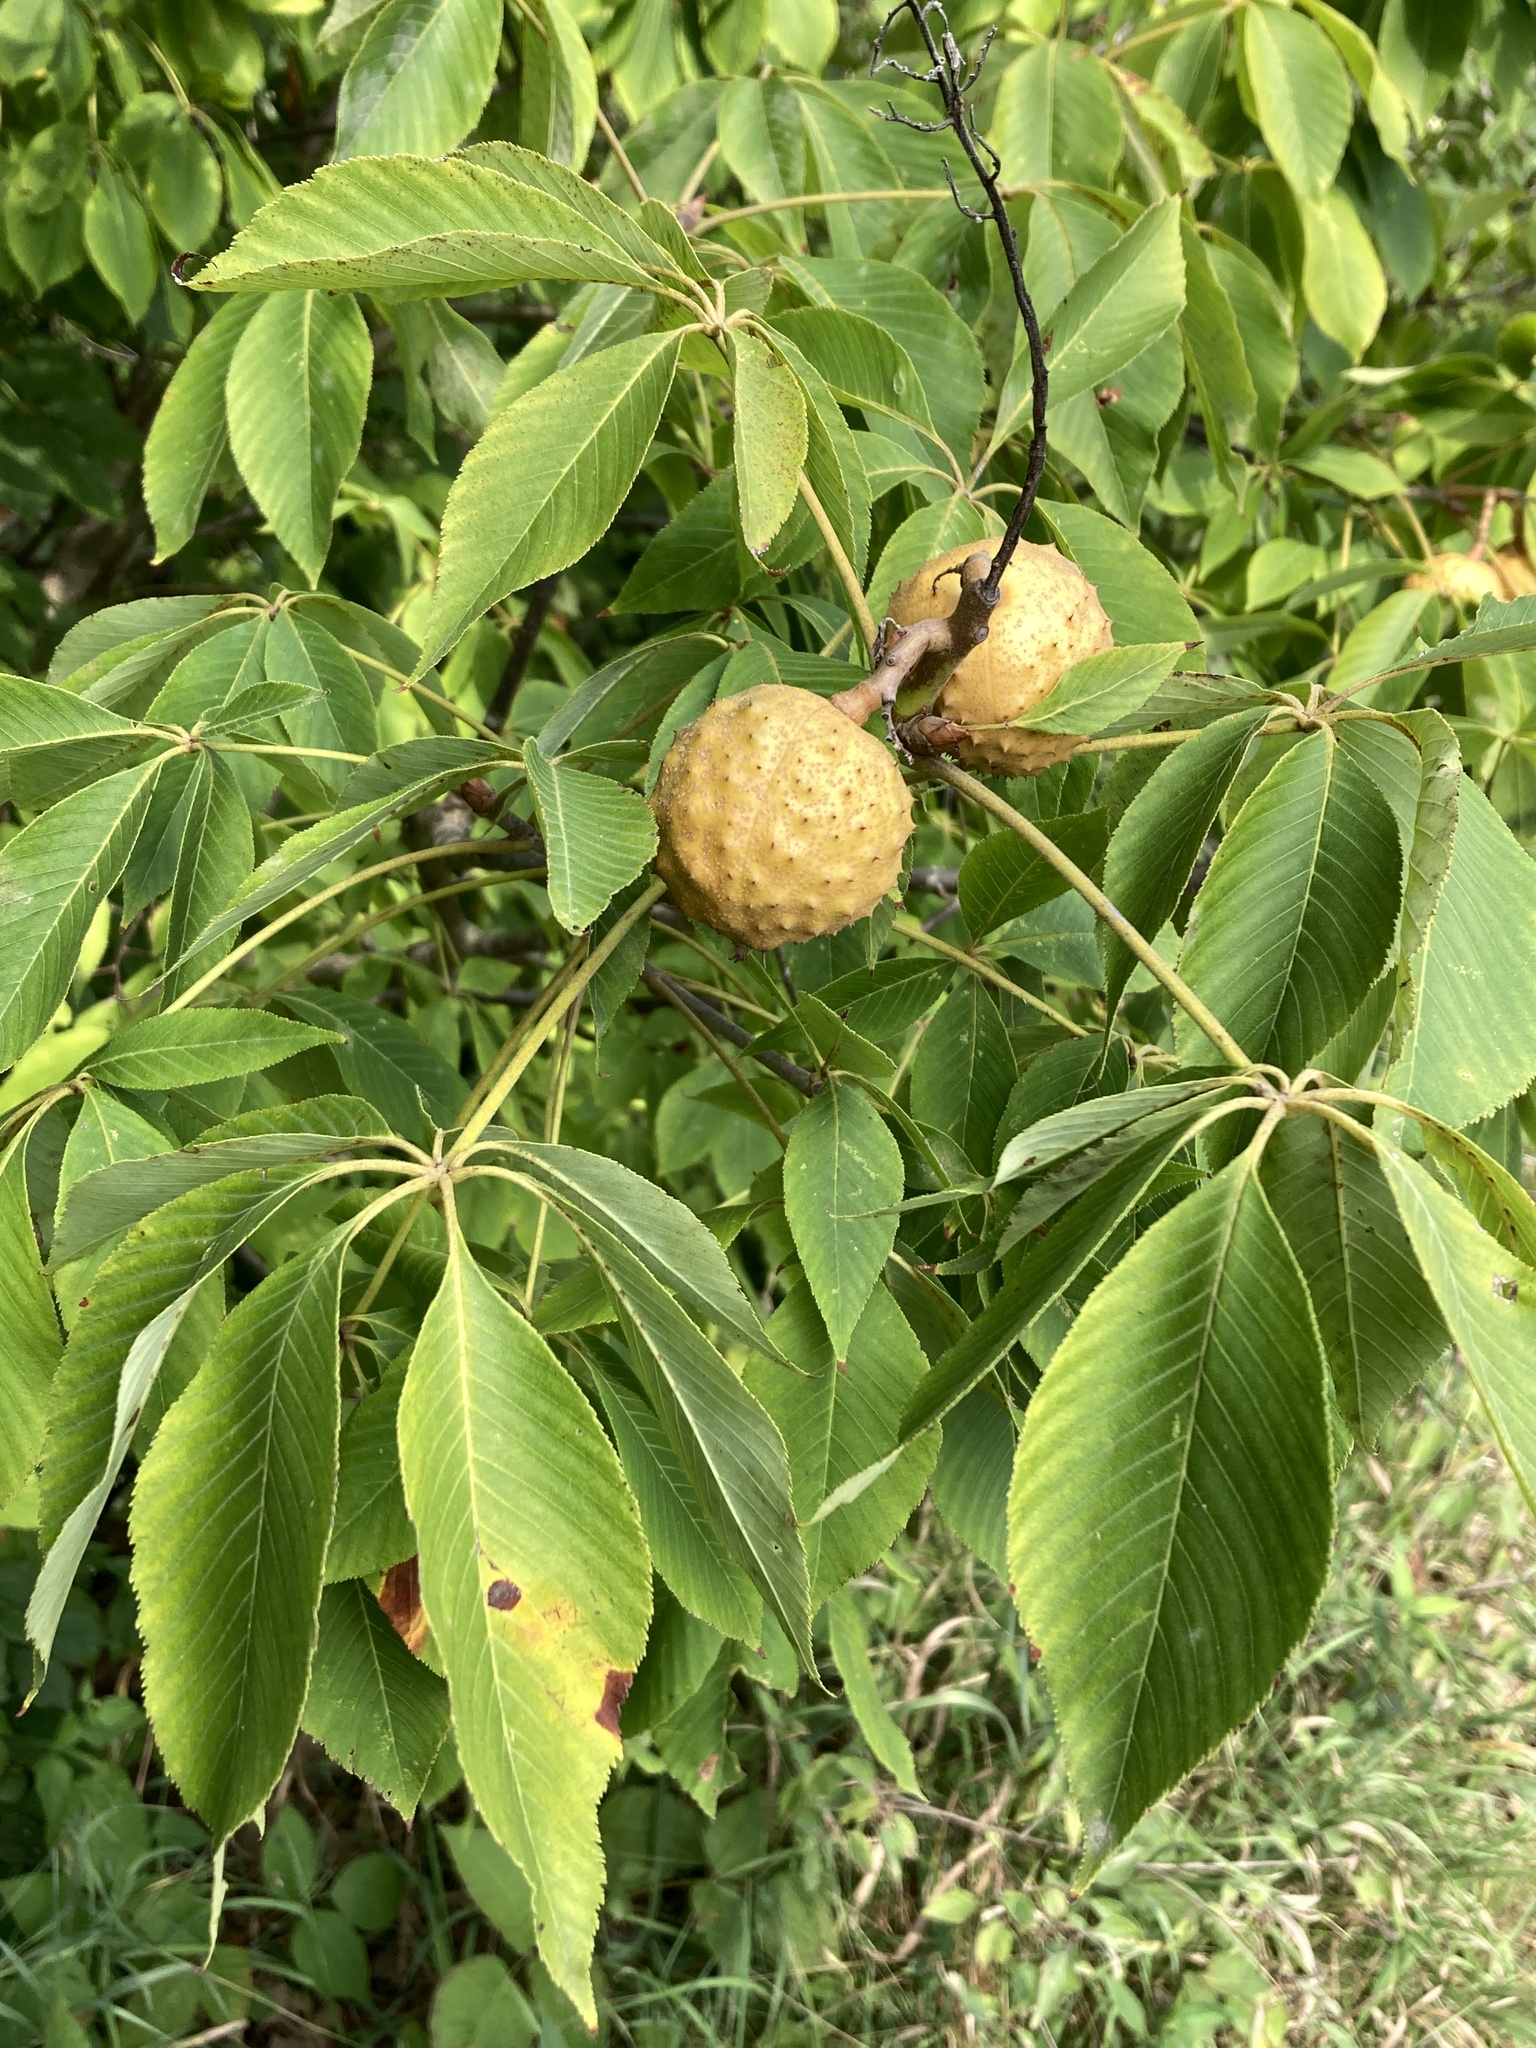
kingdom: Plantae
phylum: Tracheophyta
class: Magnoliopsida
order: Sapindales
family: Sapindaceae
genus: Aesculus
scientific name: Aesculus glabra
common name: Ohio buckeye
